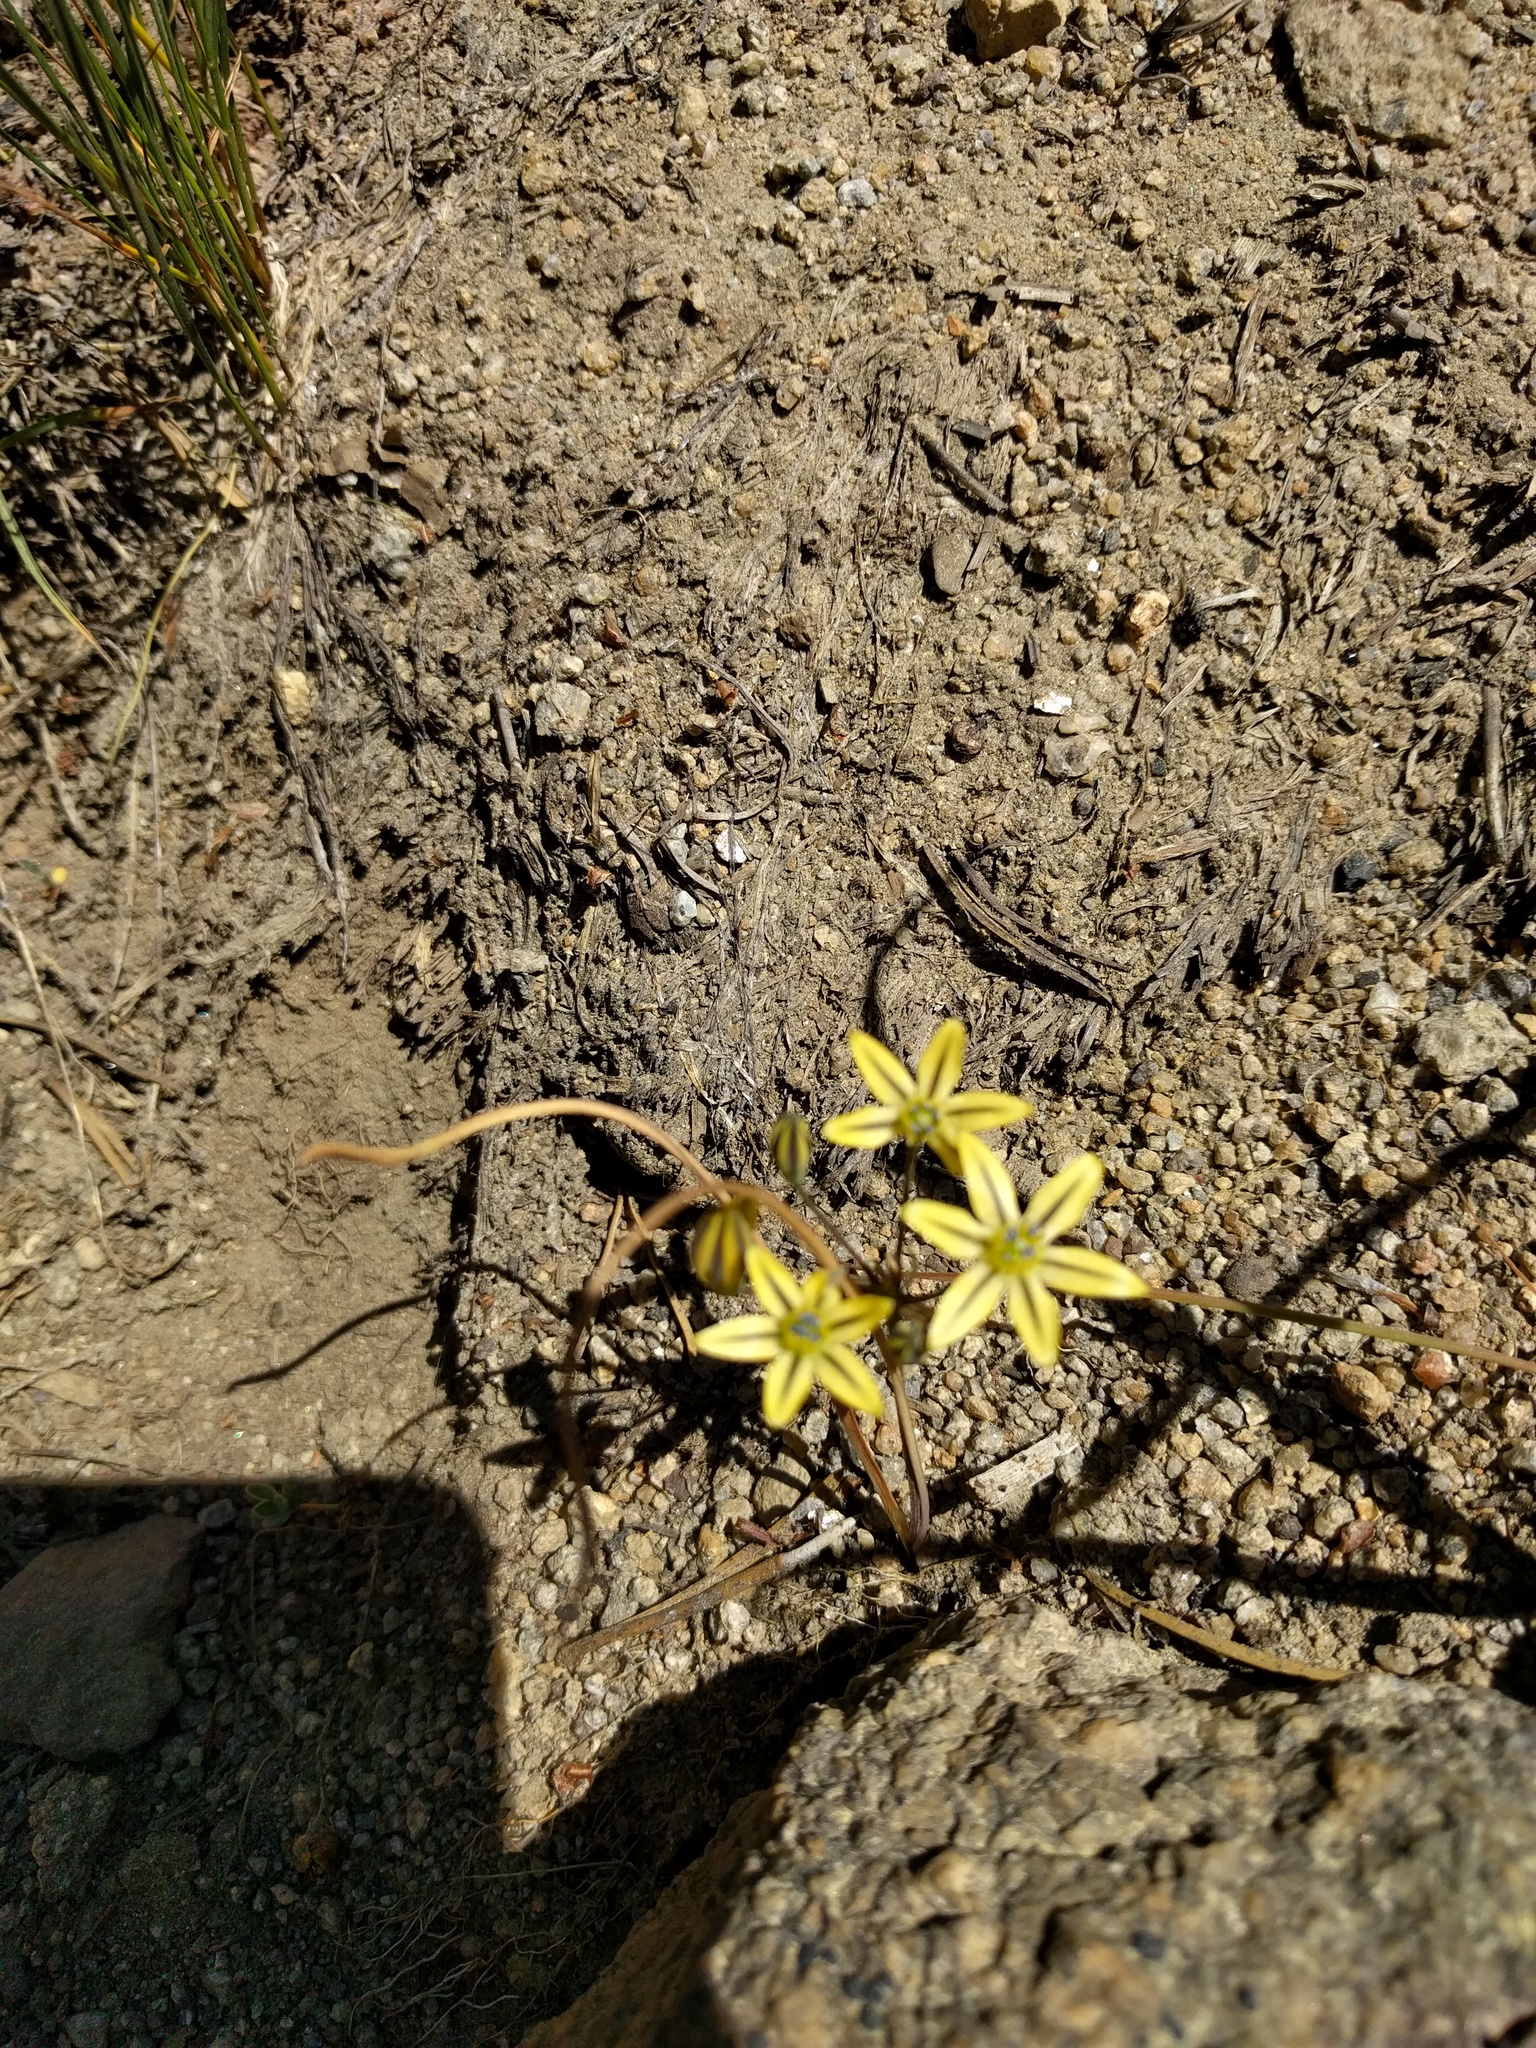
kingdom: Plantae
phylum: Tracheophyta
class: Liliopsida
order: Asparagales
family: Asparagaceae
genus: Triteleia
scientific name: Triteleia ixioides
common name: Yellow-brodiaea
